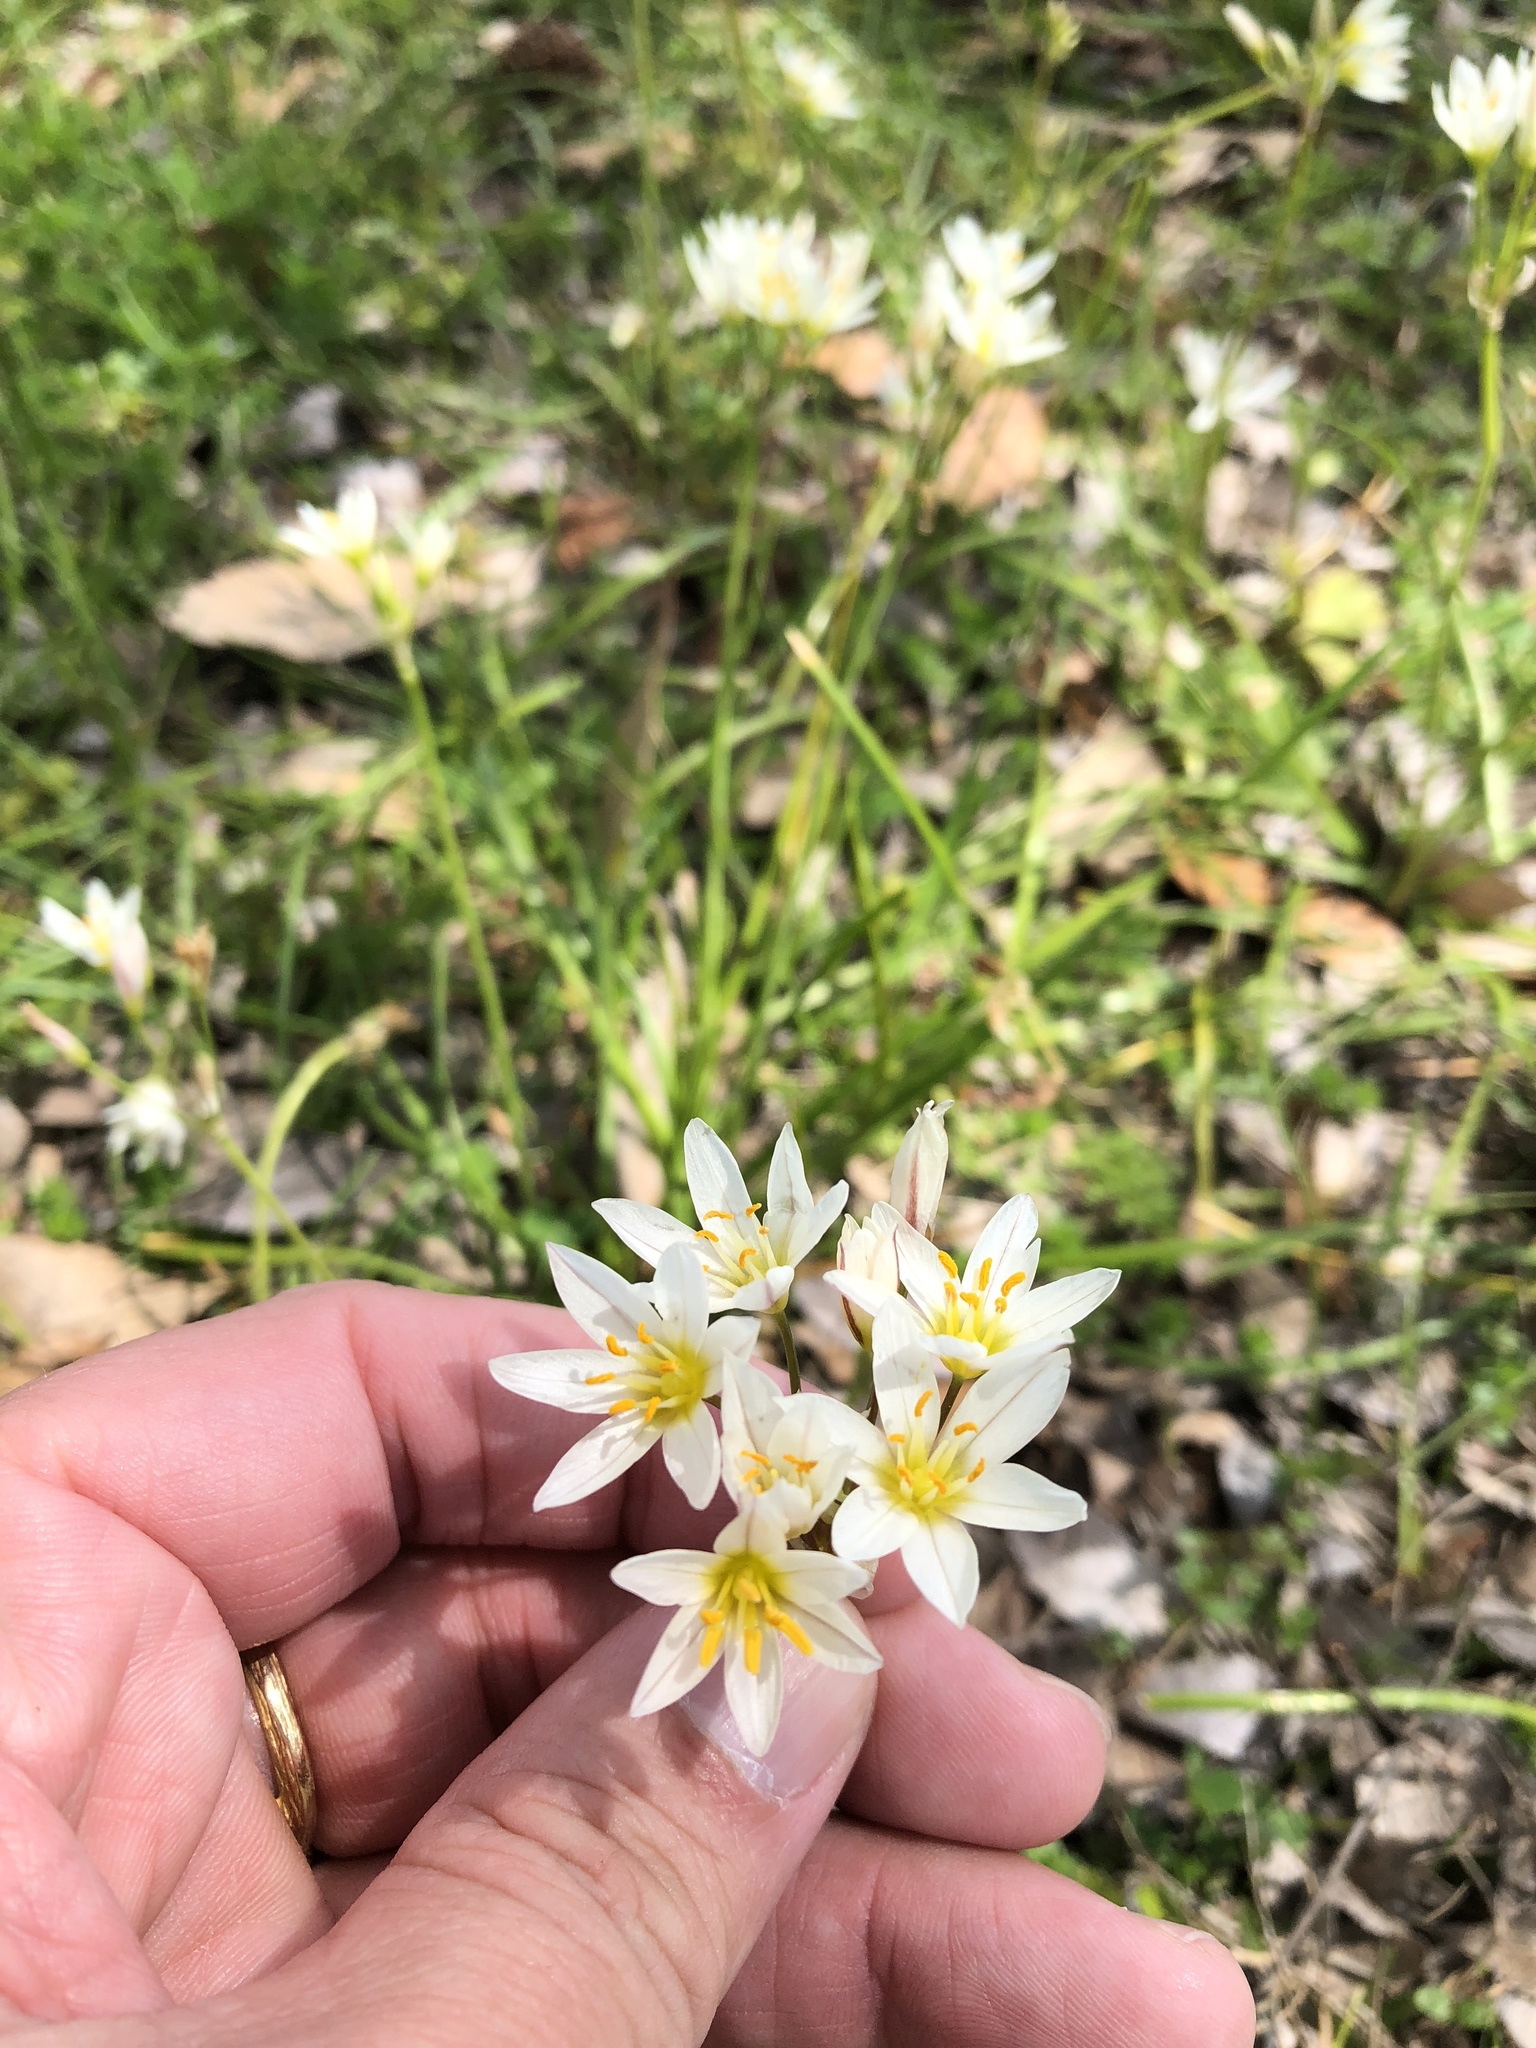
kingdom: Plantae
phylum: Tracheophyta
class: Liliopsida
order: Asparagales
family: Amaryllidaceae
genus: Nothoscordum
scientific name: Nothoscordum bivalve
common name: Crow-poison
